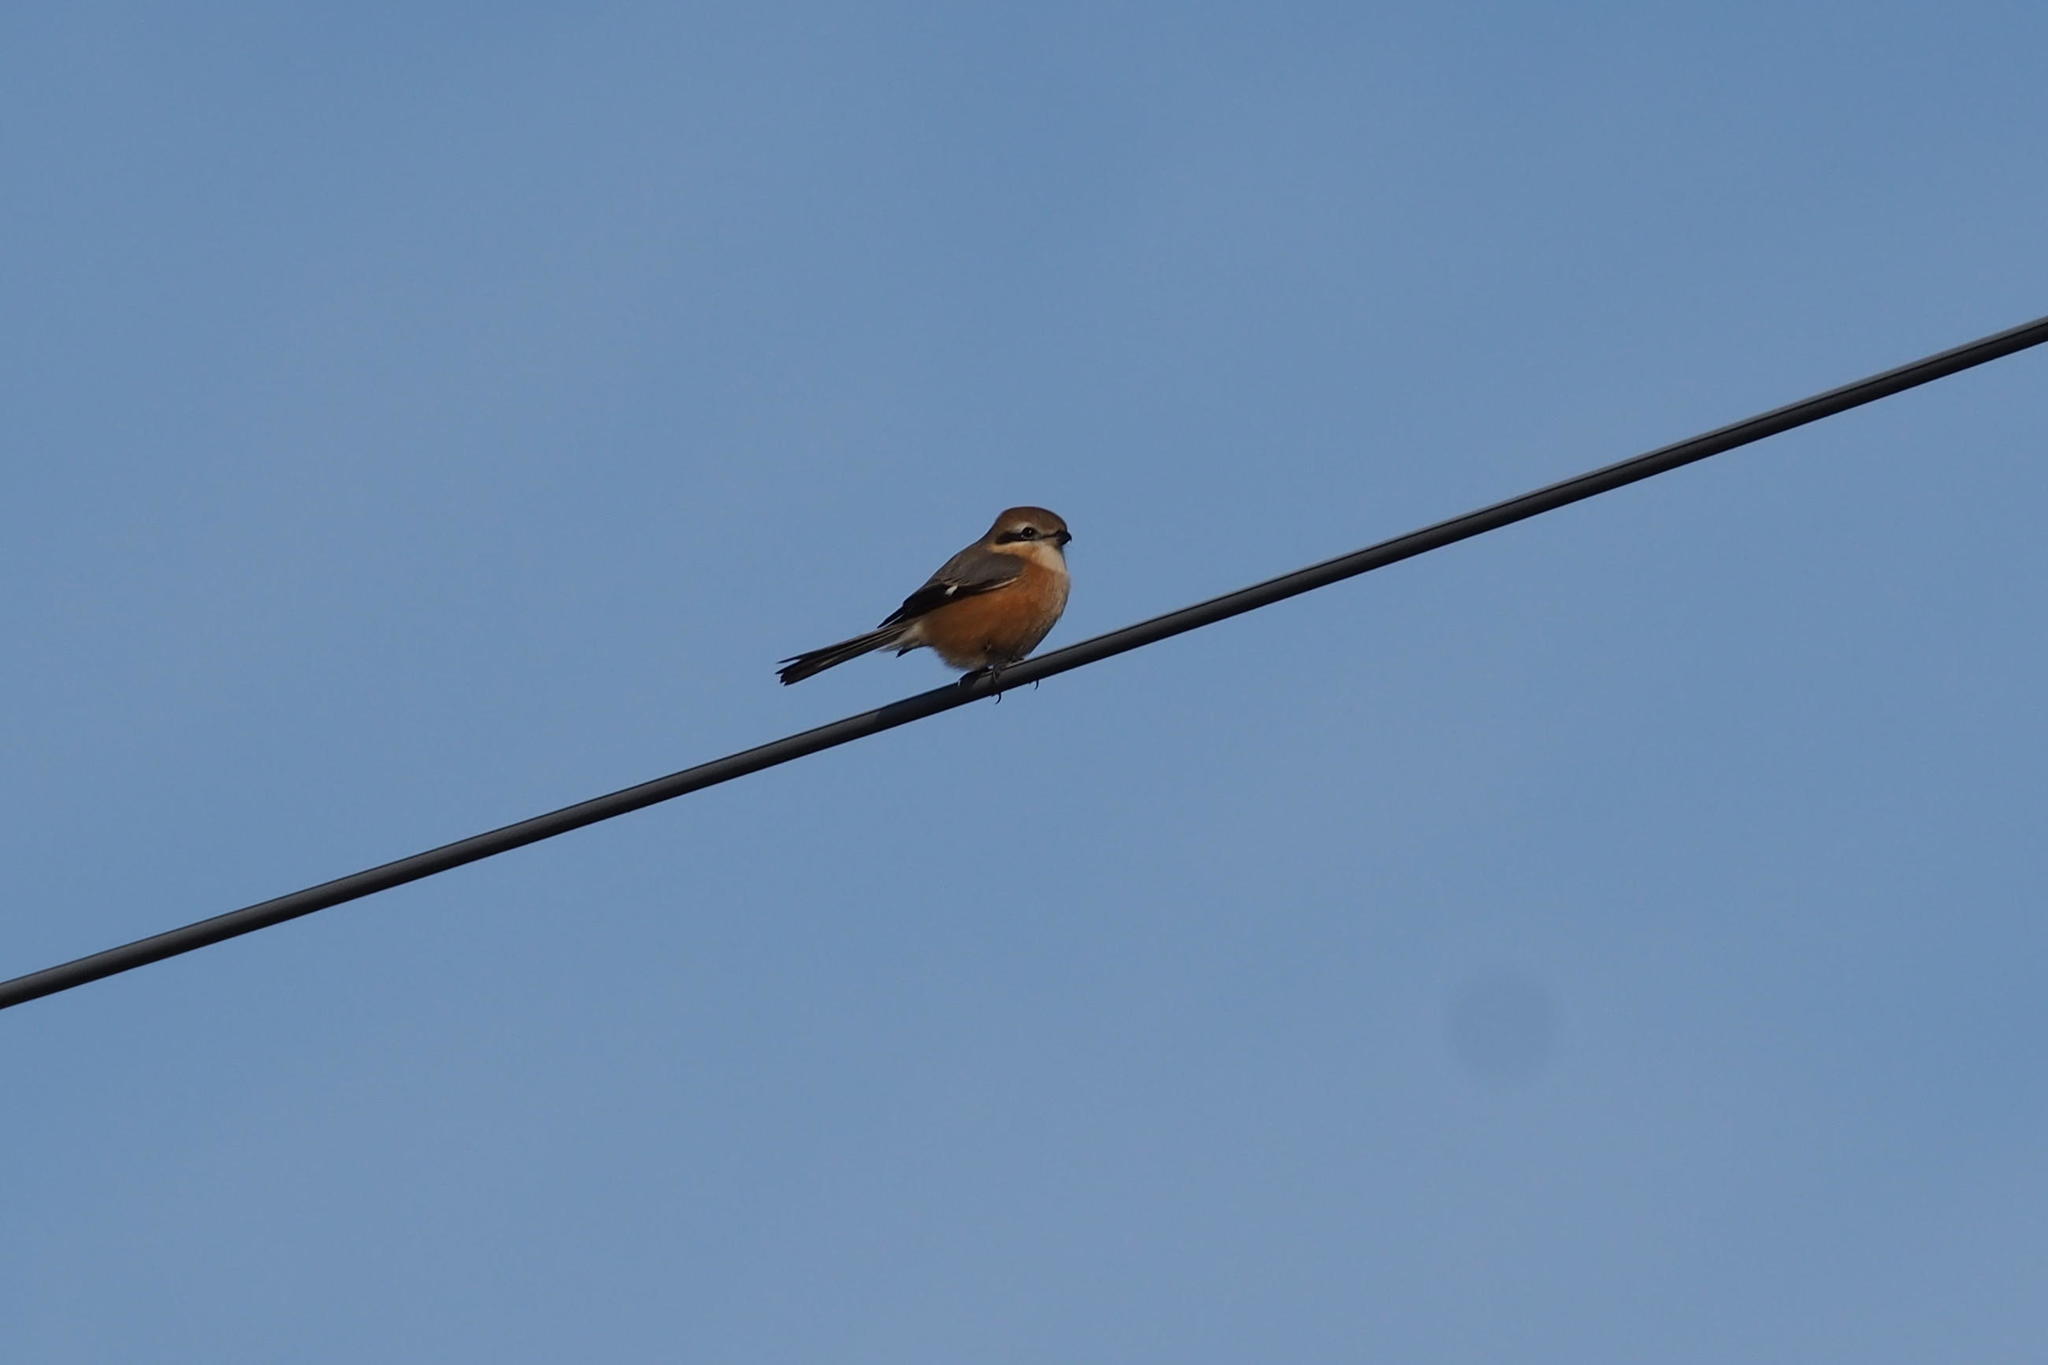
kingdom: Animalia
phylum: Chordata
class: Aves
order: Passeriformes
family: Laniidae
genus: Lanius
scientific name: Lanius bucephalus
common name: Bull-headed shrike
